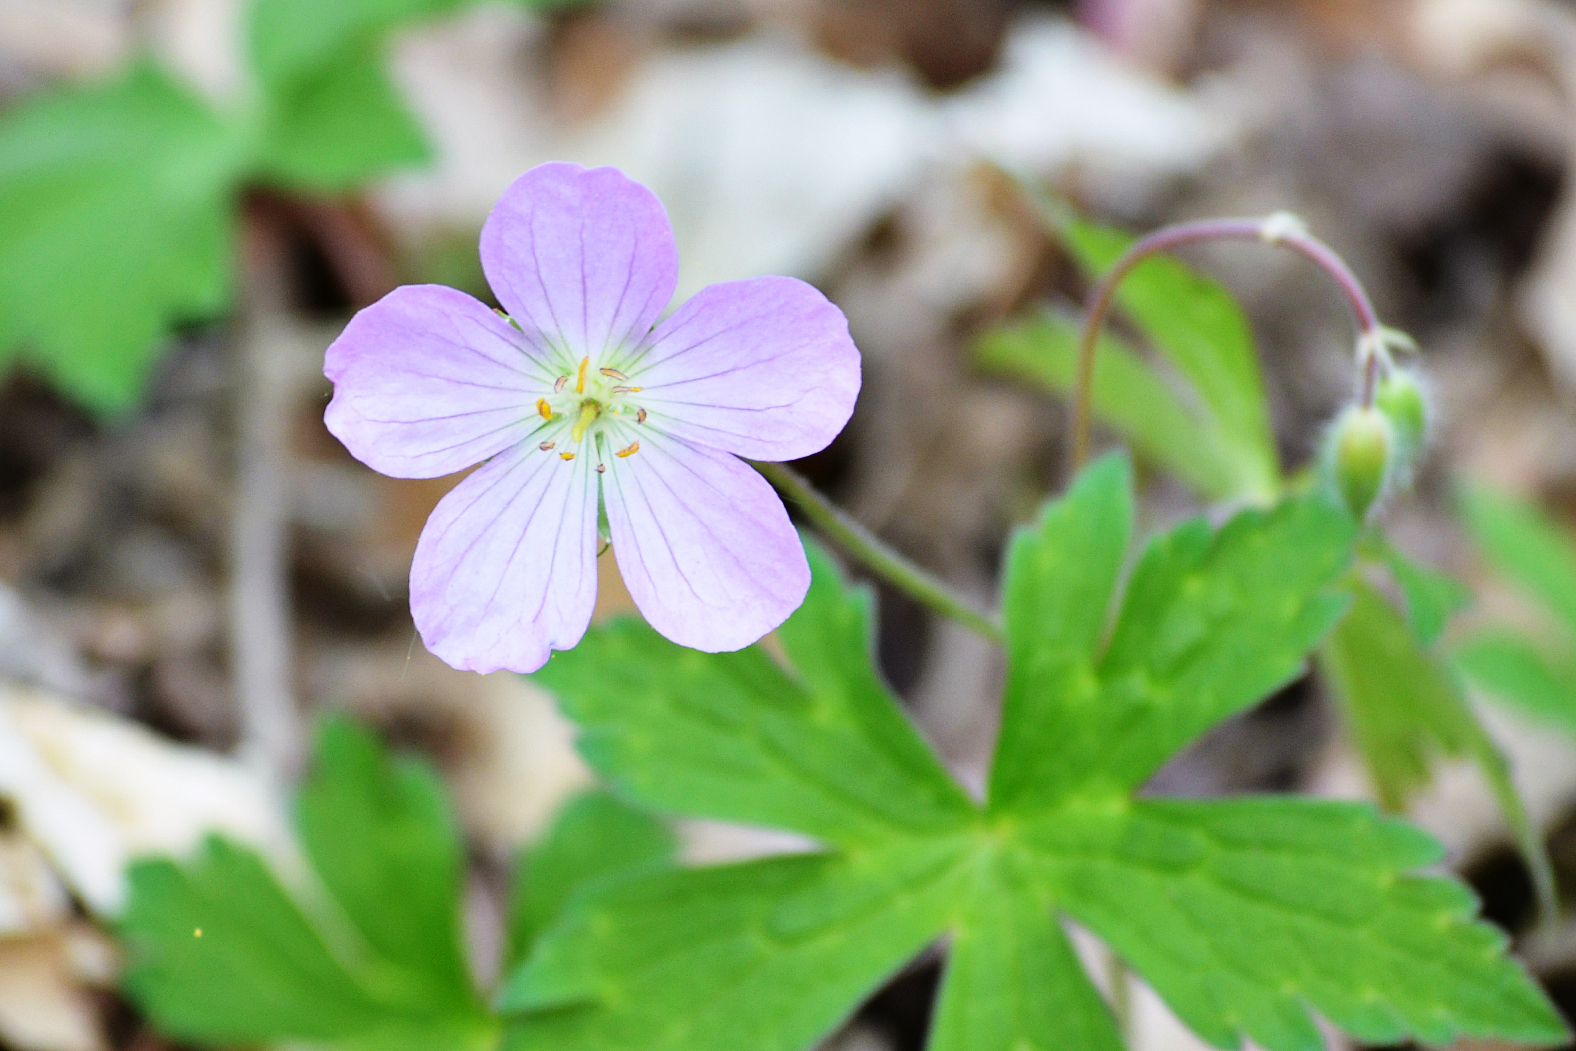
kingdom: Plantae
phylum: Tracheophyta
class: Magnoliopsida
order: Geraniales
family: Geraniaceae
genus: Geranium
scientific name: Geranium maculatum
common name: Spotted geranium
